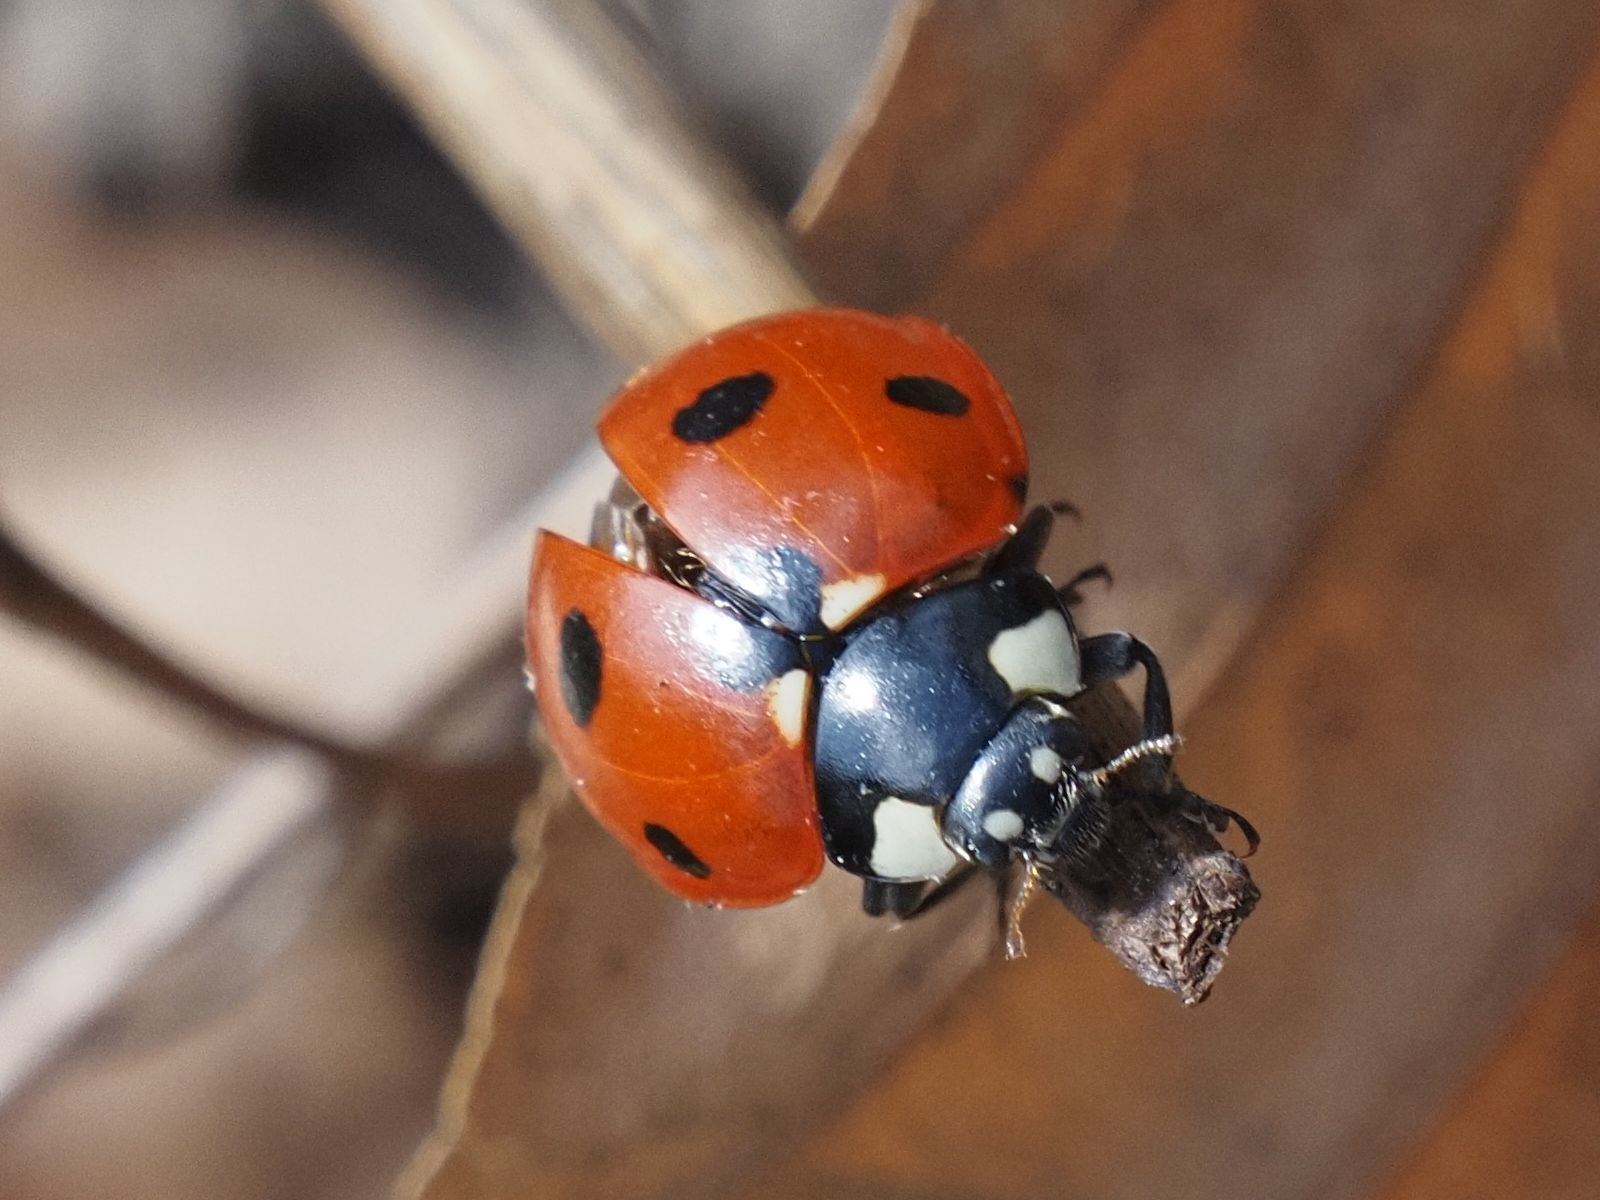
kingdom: Animalia
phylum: Arthropoda
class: Insecta
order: Coleoptera
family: Coccinellidae
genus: Coccinella
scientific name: Coccinella septempunctata
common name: Sevenspotted lady beetle
